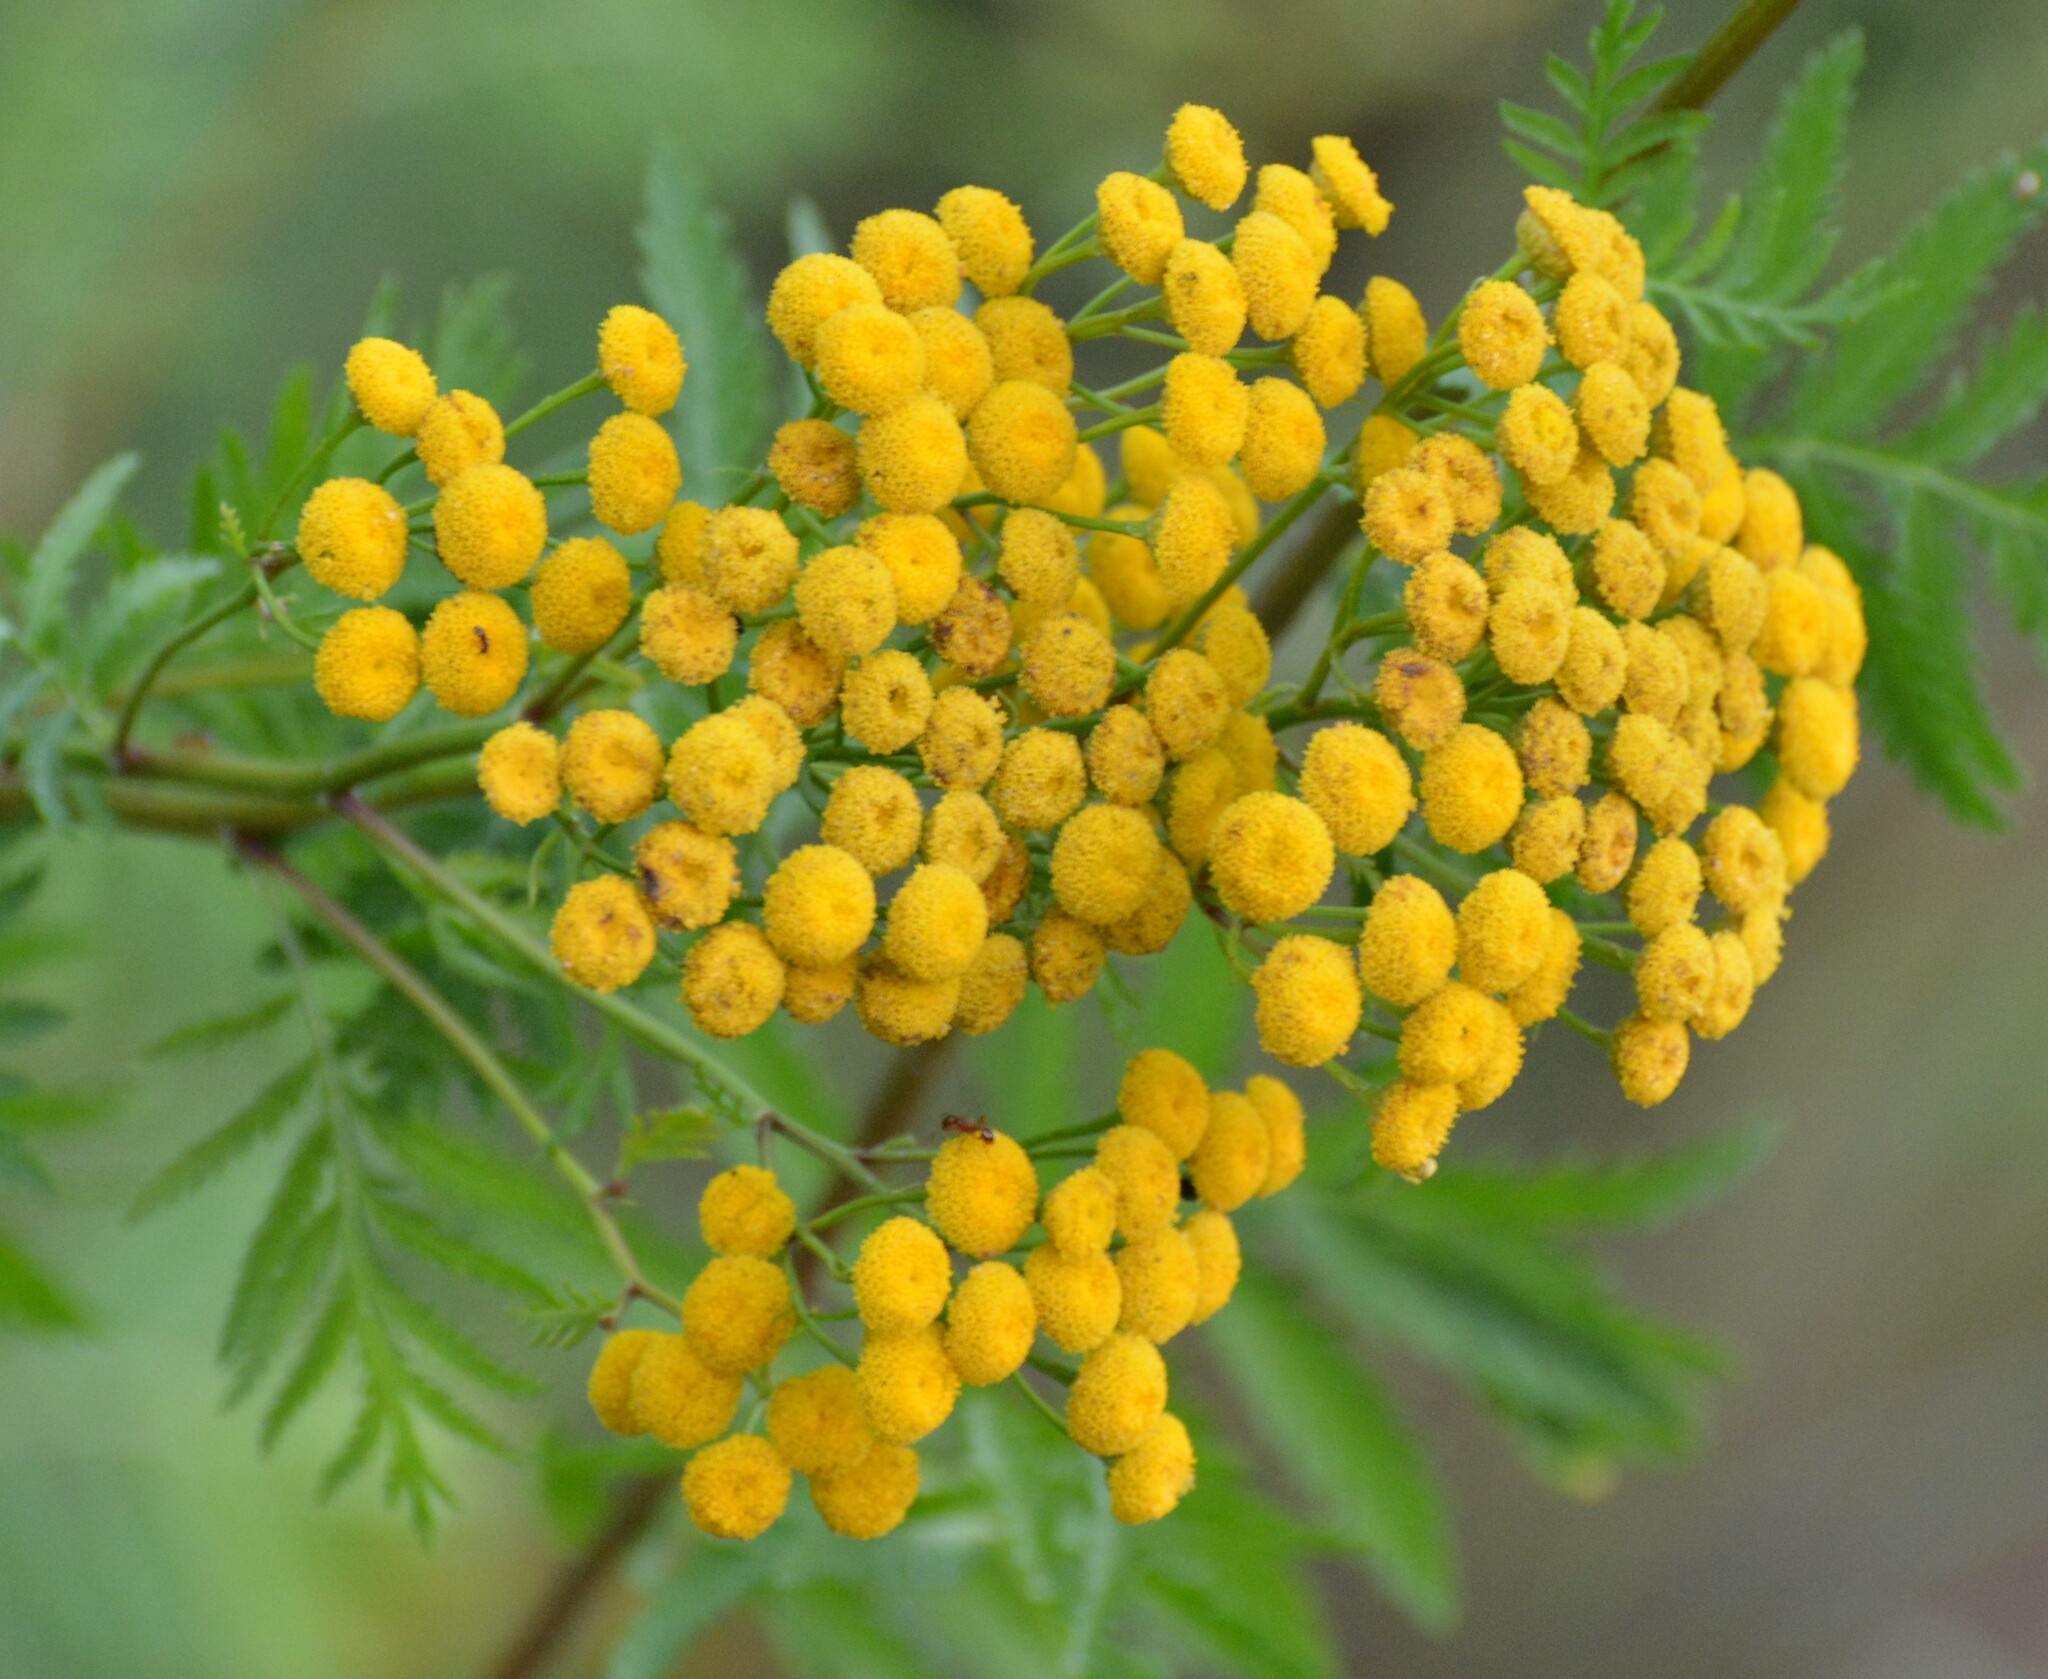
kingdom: Plantae
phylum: Tracheophyta
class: Magnoliopsida
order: Asterales
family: Asteraceae
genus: Tanacetum
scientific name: Tanacetum vulgare
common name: Common tansy
